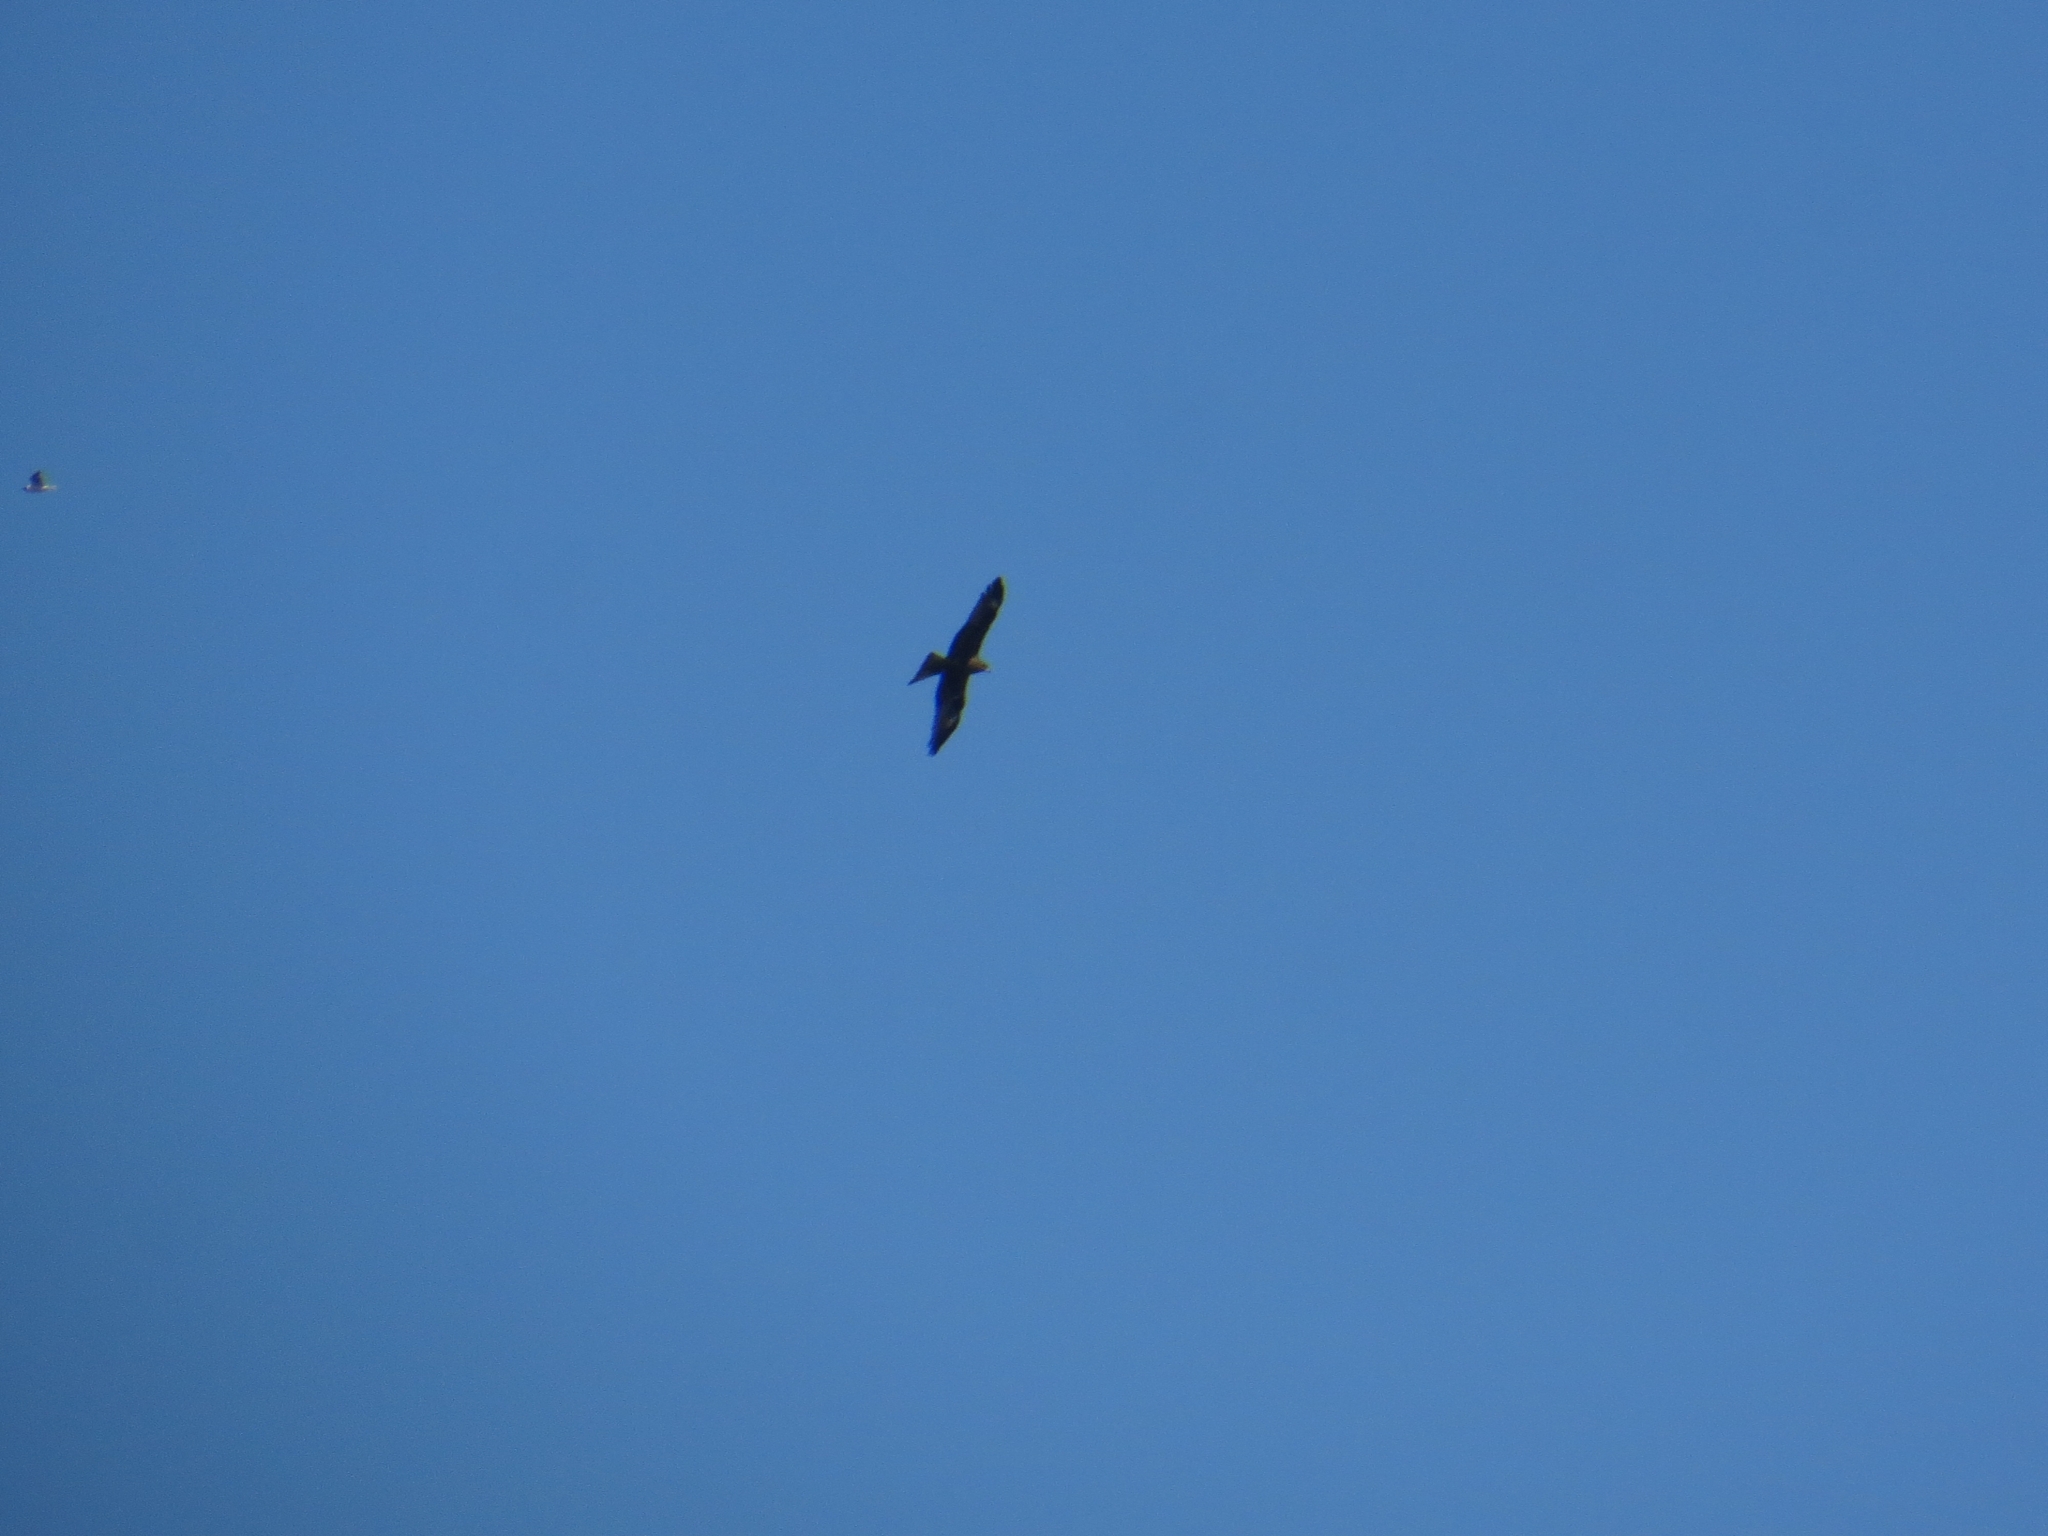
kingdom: Animalia
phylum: Chordata
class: Aves
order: Accipitriformes
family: Accipitridae
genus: Milvus
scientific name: Milvus migrans
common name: Black kite
